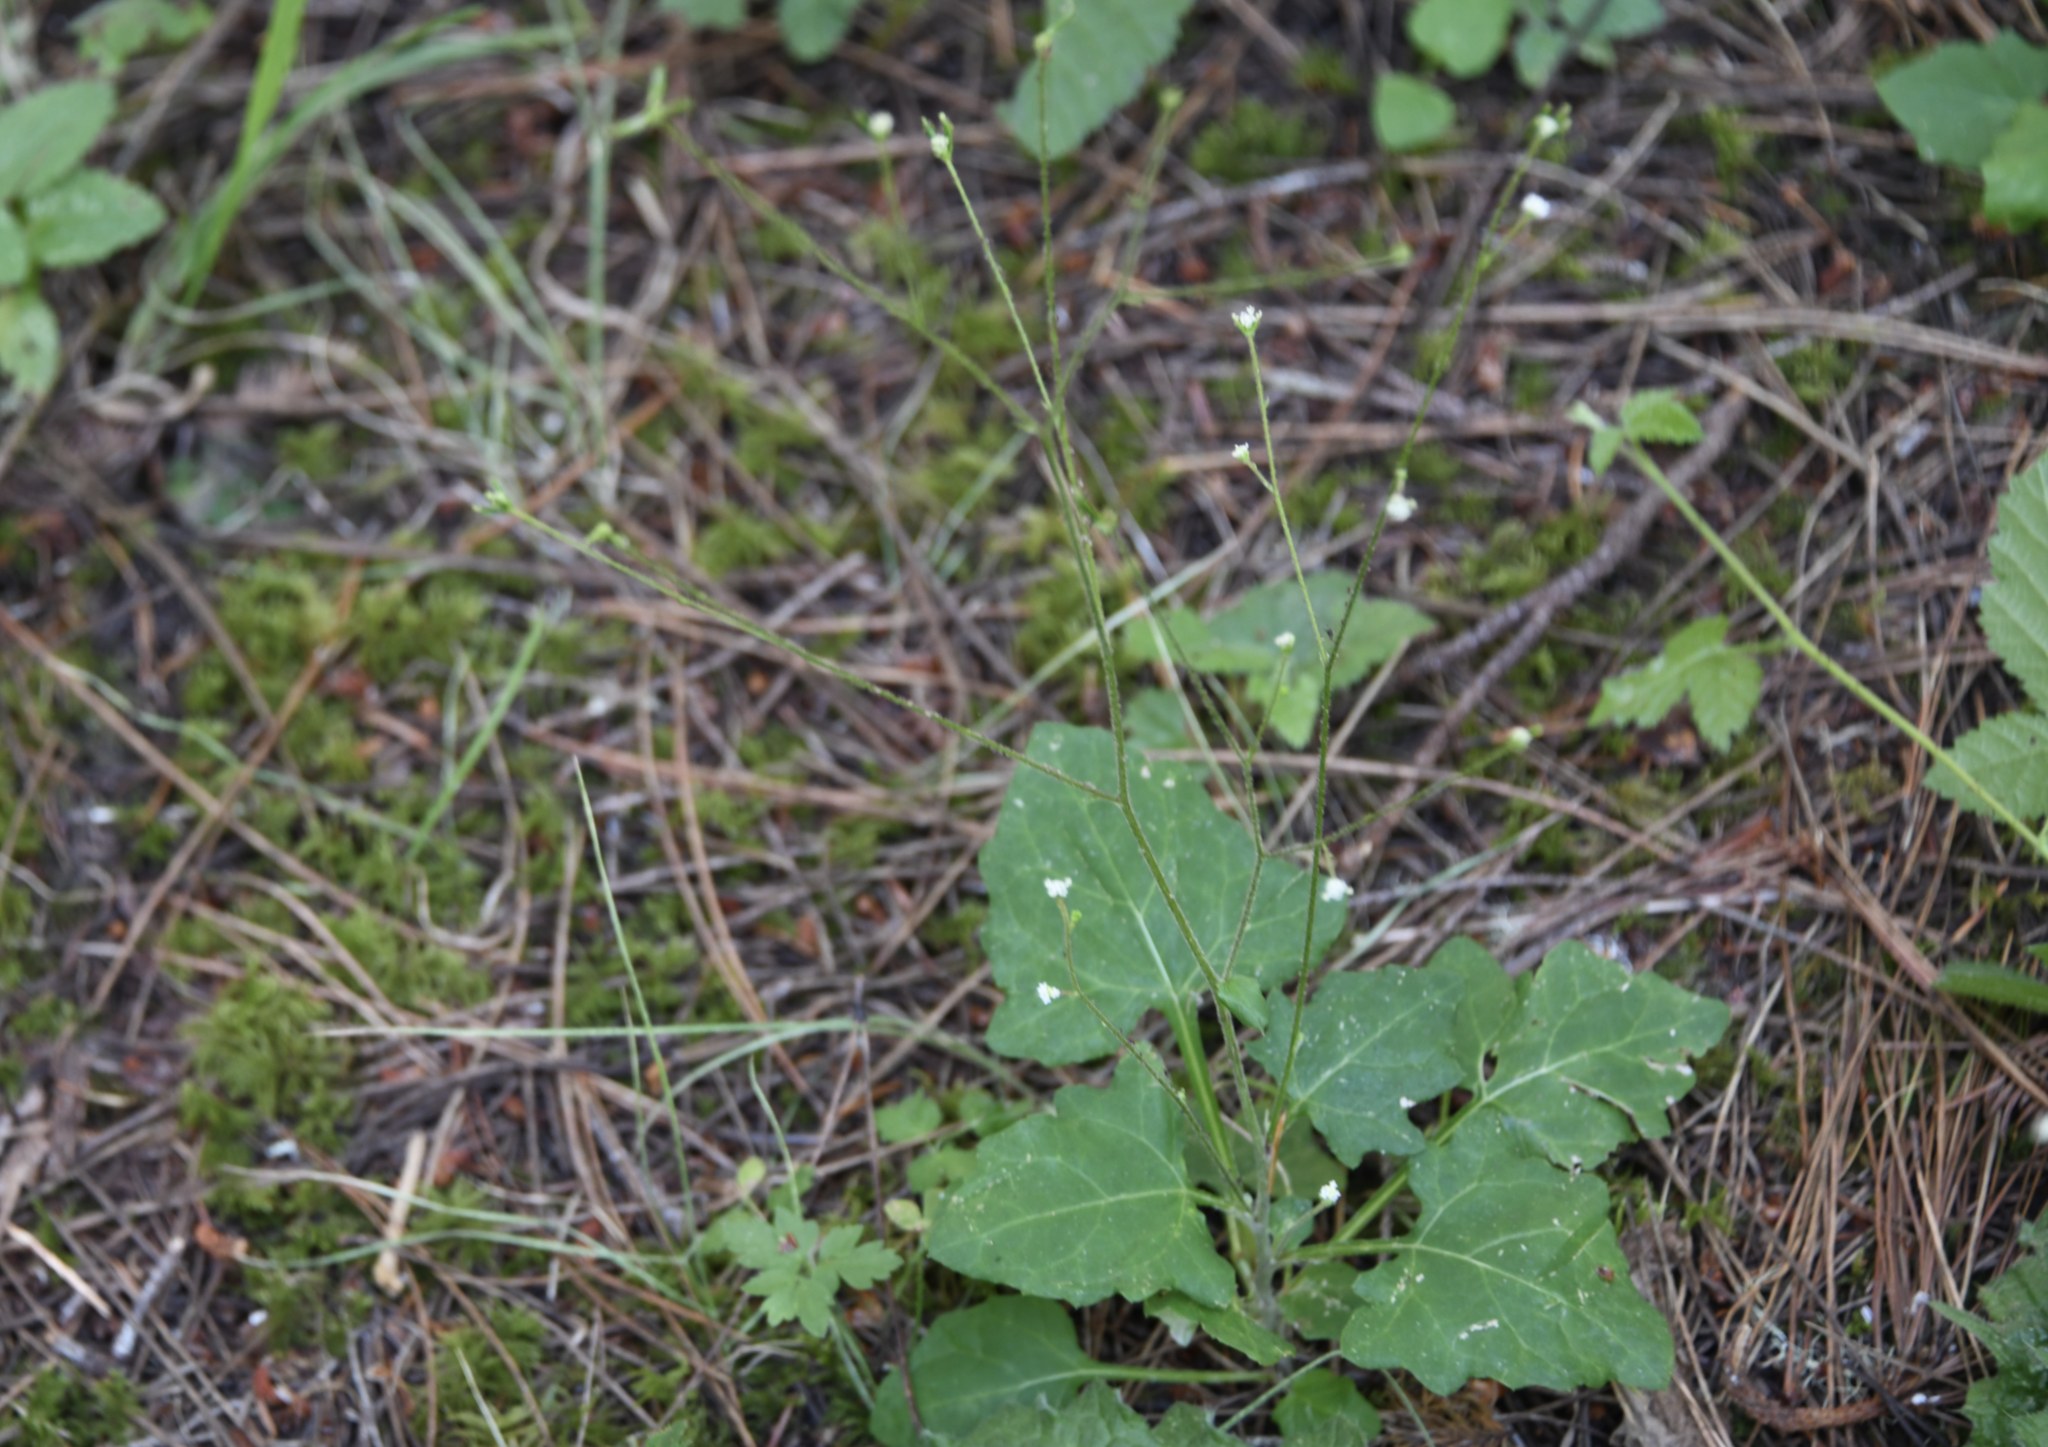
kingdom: Plantae
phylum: Tracheophyta
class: Magnoliopsida
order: Asterales
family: Asteraceae
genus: Adenocaulon
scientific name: Adenocaulon bicolor
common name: Trailplant
